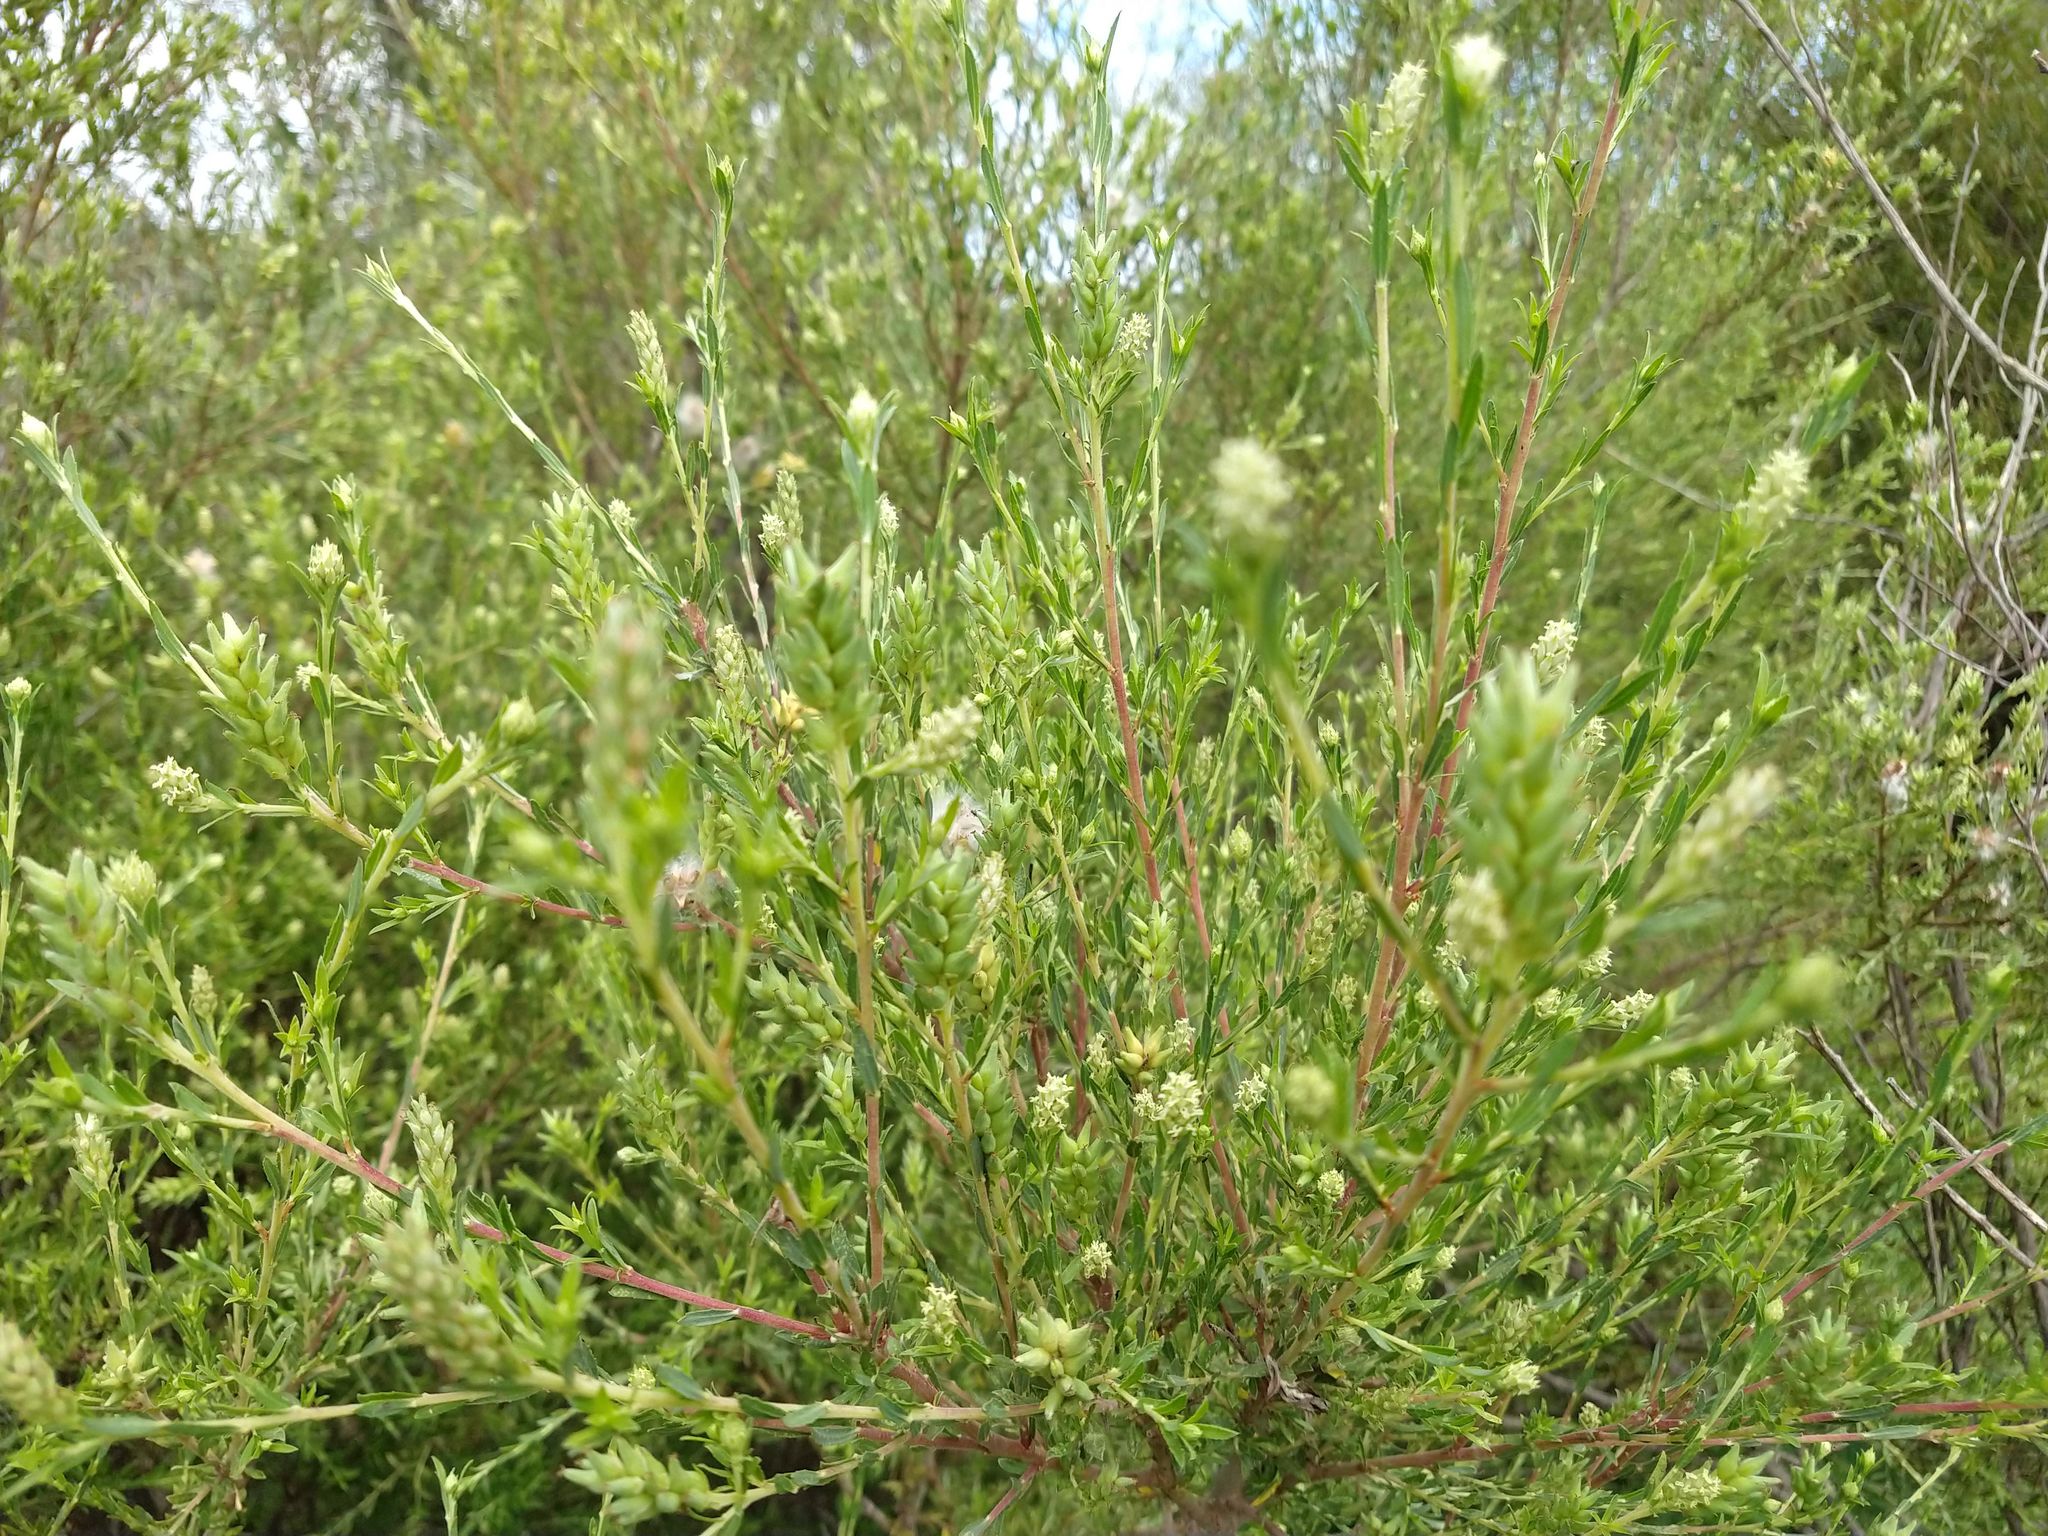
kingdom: Plantae
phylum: Tracheophyta
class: Magnoliopsida
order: Malpighiales
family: Salicaceae
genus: Salix
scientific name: Salix taxifolia
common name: Yew-leaf willow
